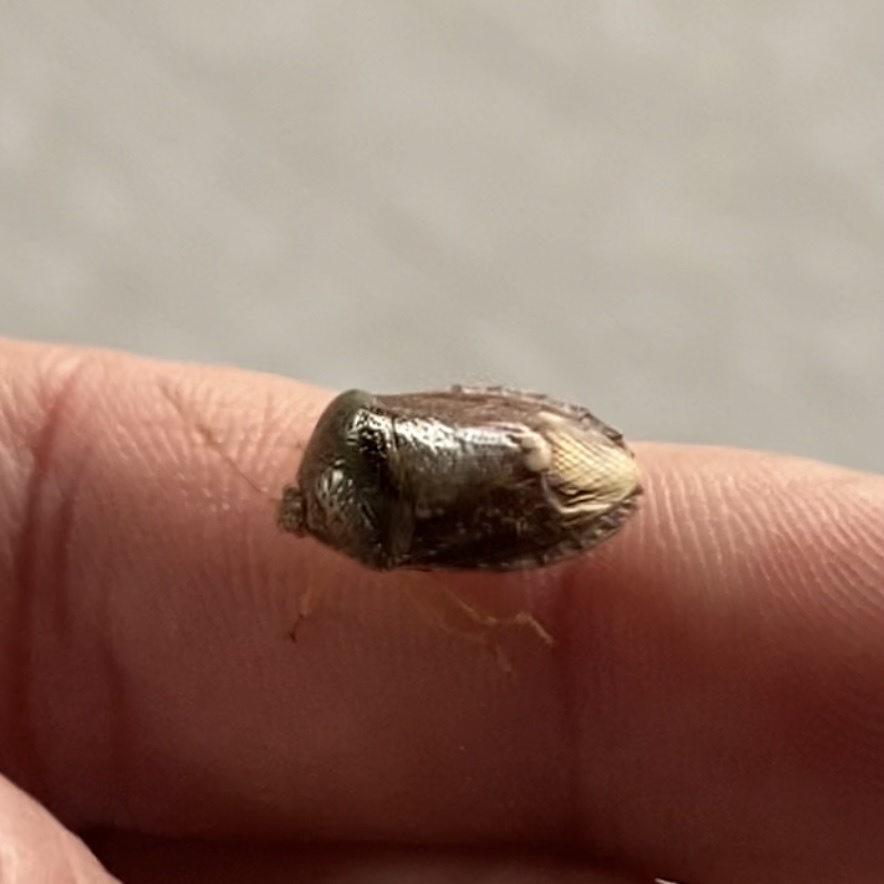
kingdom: Animalia
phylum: Arthropoda
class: Insecta
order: Hemiptera
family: Pentatomidae
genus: Edessa
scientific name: Edessa bifida
